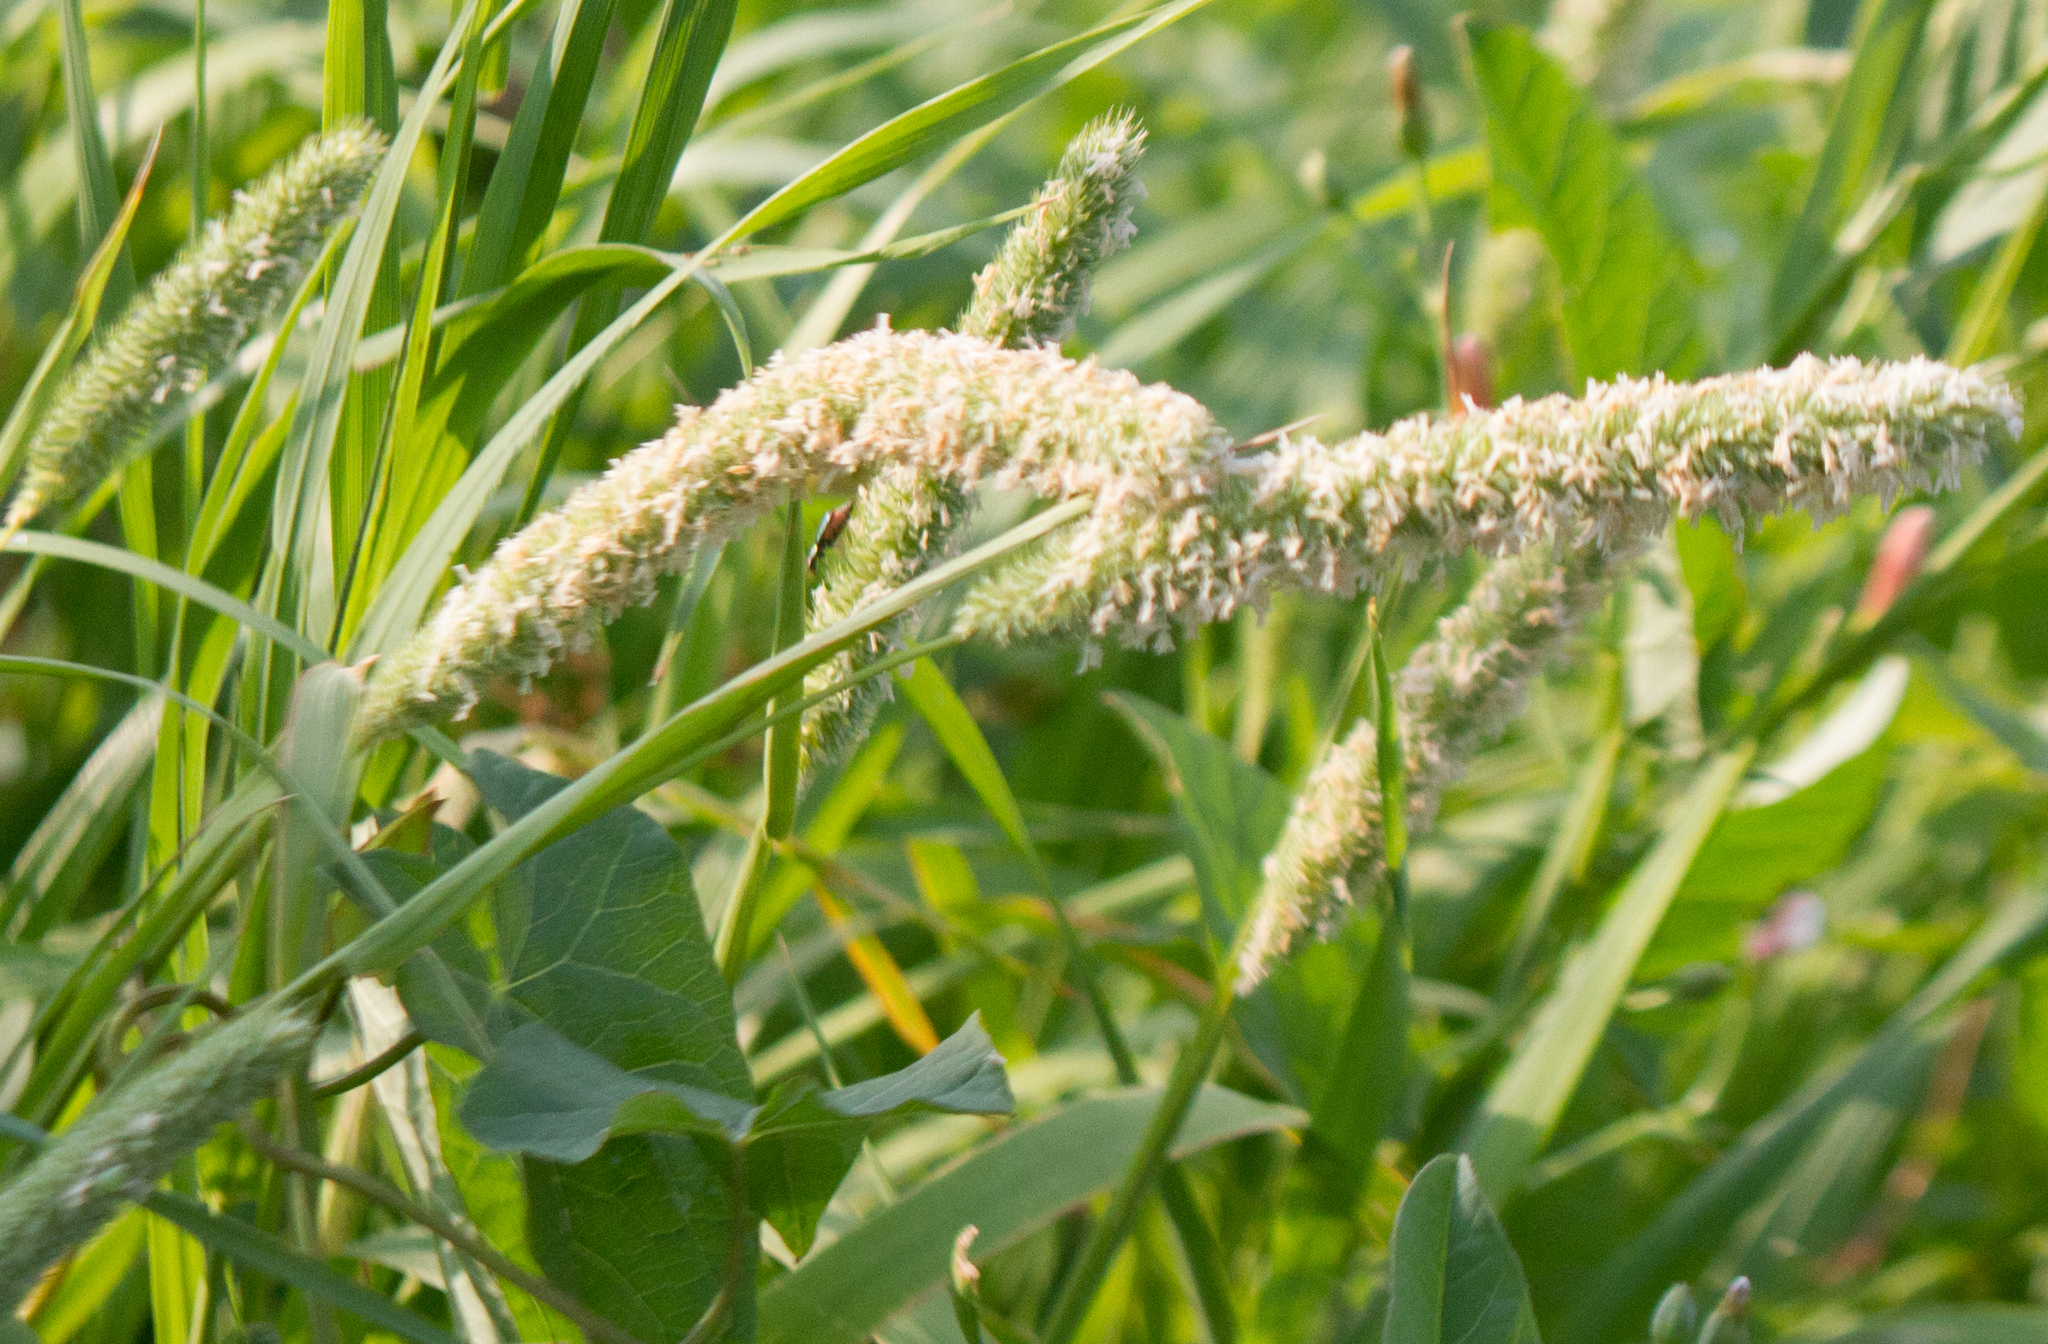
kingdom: Plantae
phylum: Tracheophyta
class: Liliopsida
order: Poales
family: Poaceae
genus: Phleum
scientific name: Phleum pratense
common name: Timothy grass
